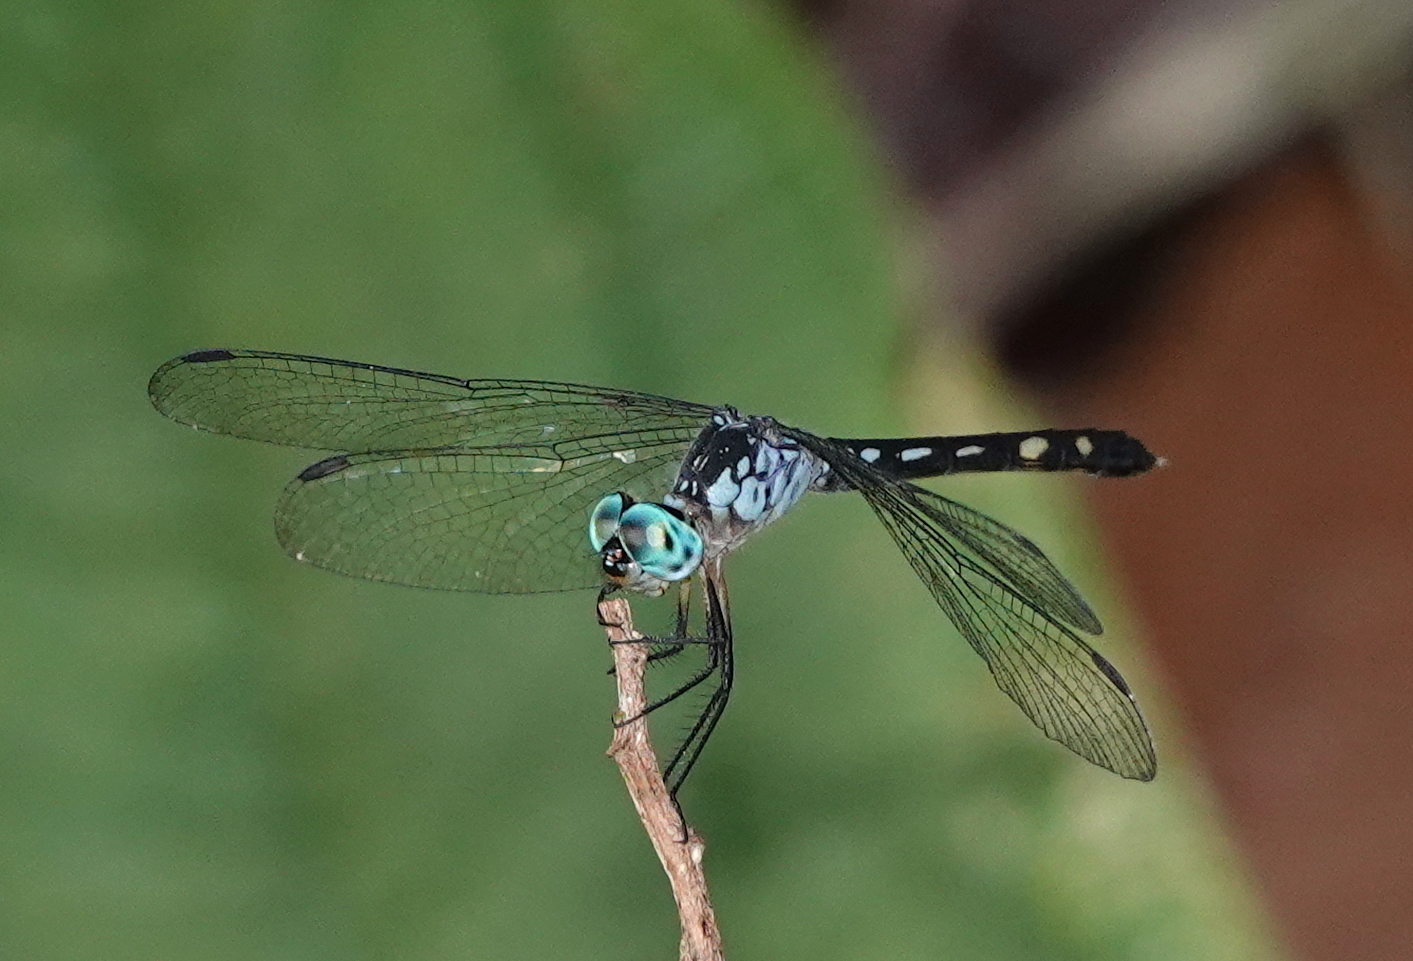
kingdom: Animalia
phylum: Arthropoda
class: Insecta
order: Odonata
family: Libellulidae
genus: Anatya
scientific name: Anatya guttata
